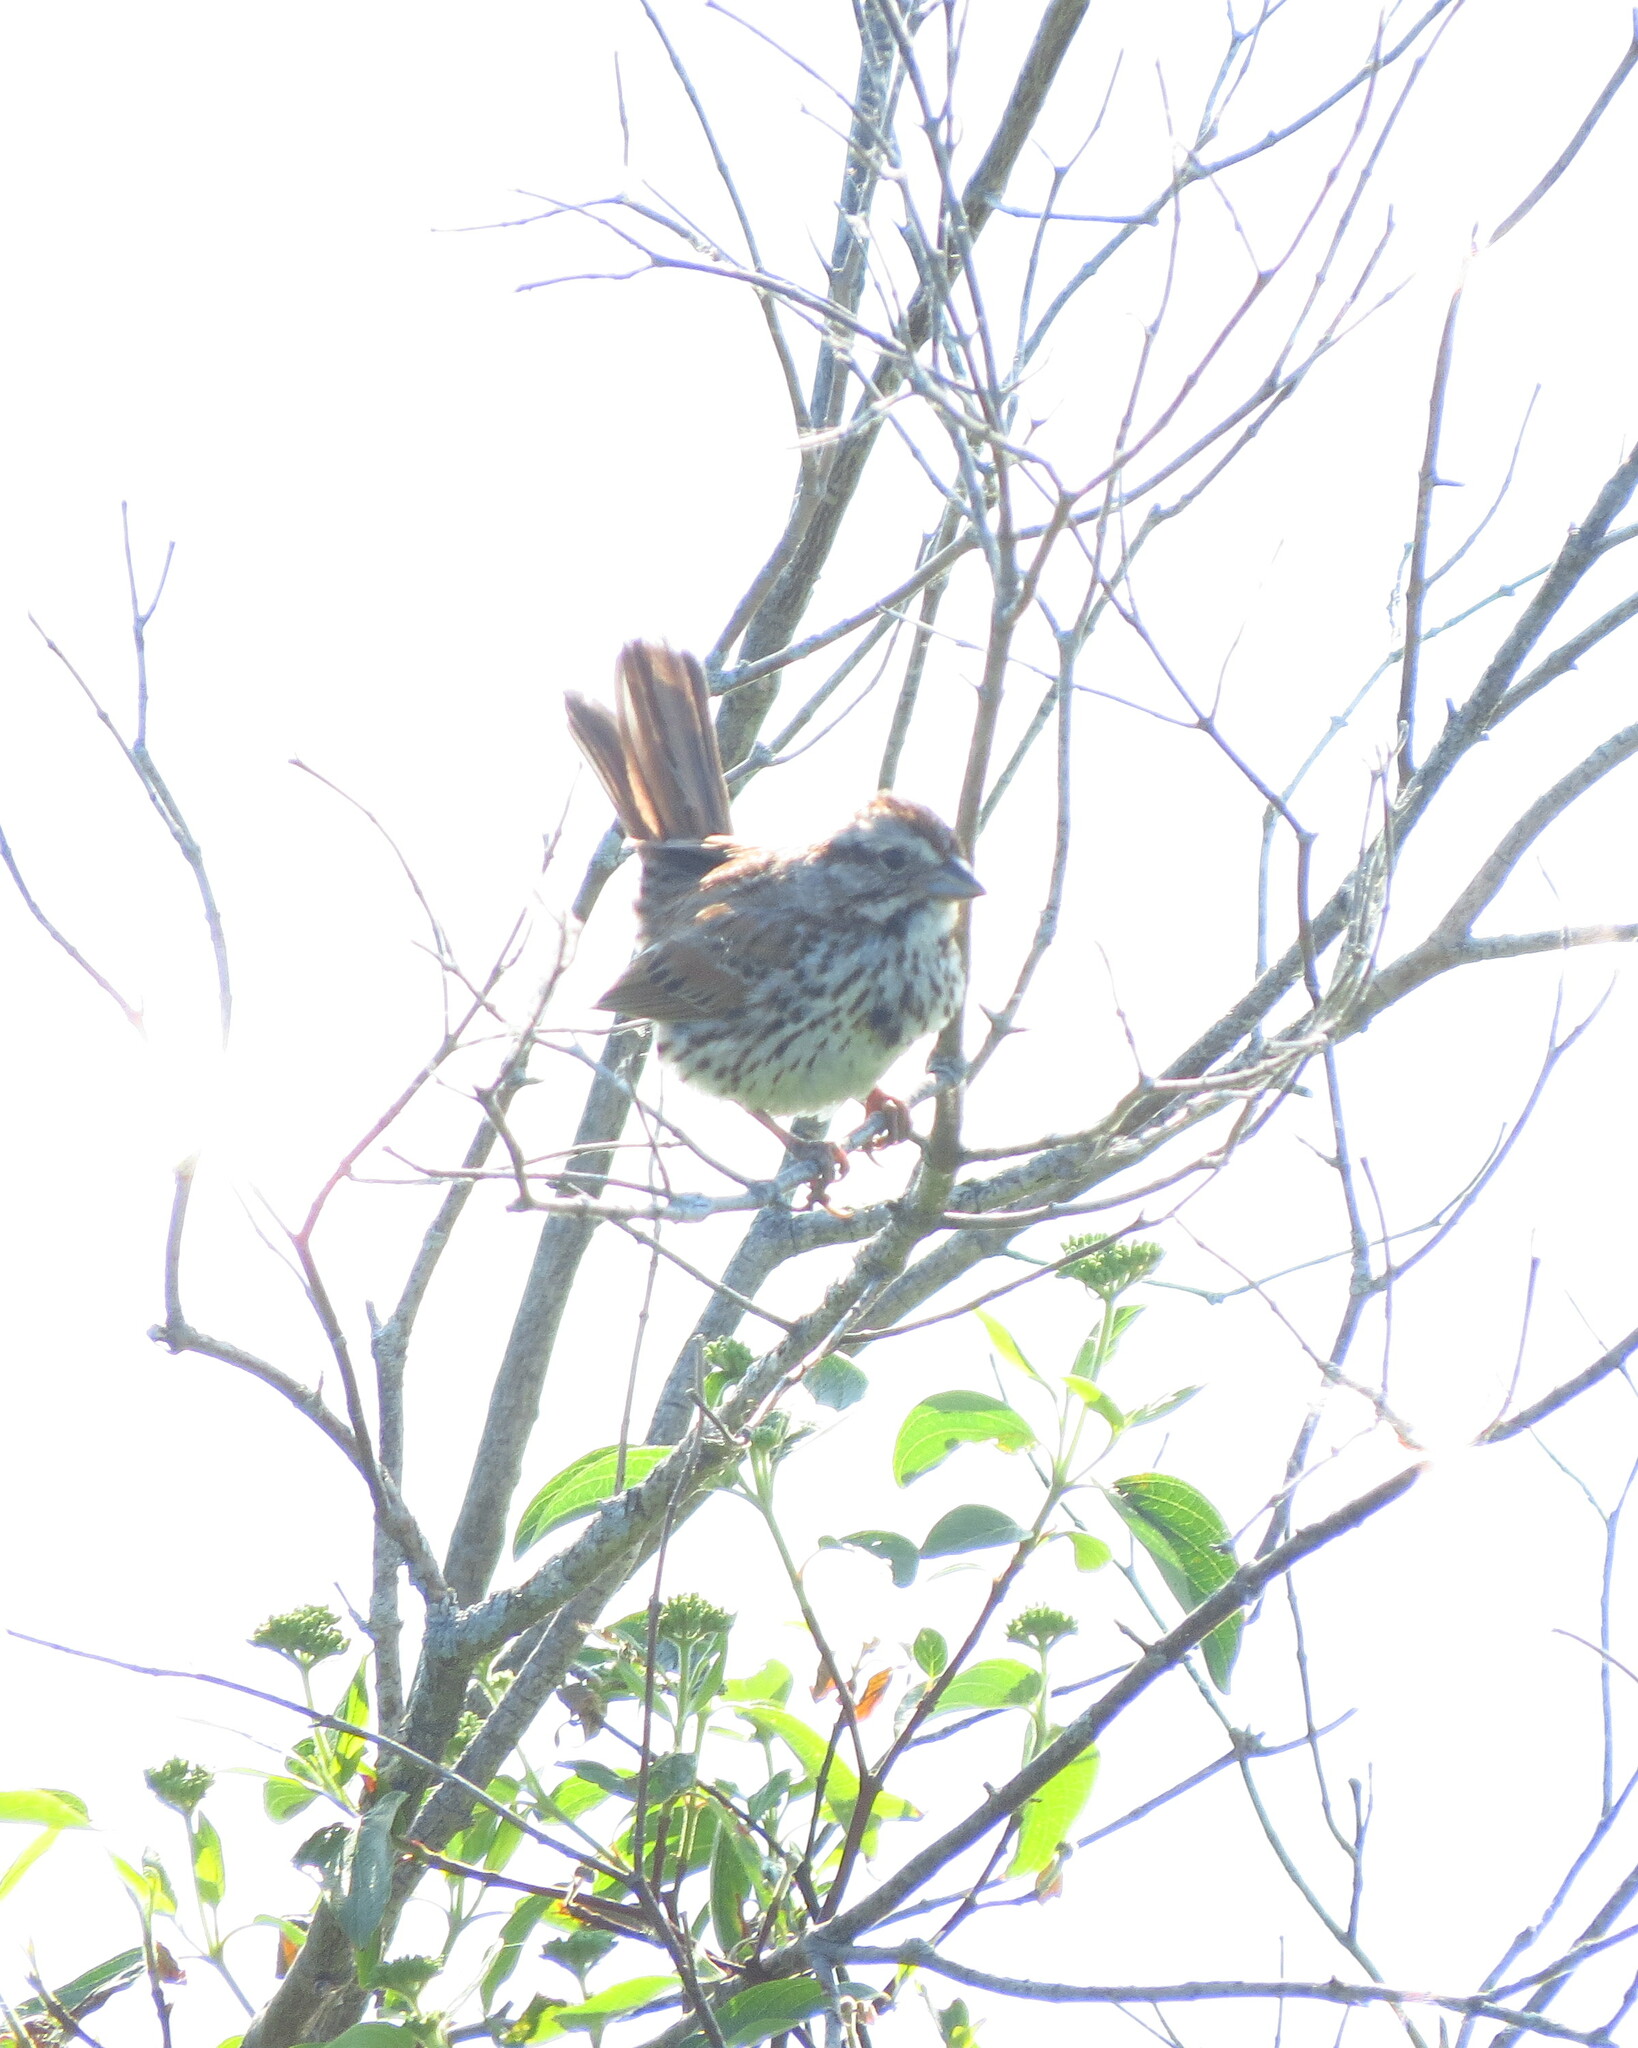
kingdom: Animalia
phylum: Chordata
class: Aves
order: Passeriformes
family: Passerellidae
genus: Melospiza
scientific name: Melospiza melodia
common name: Song sparrow
